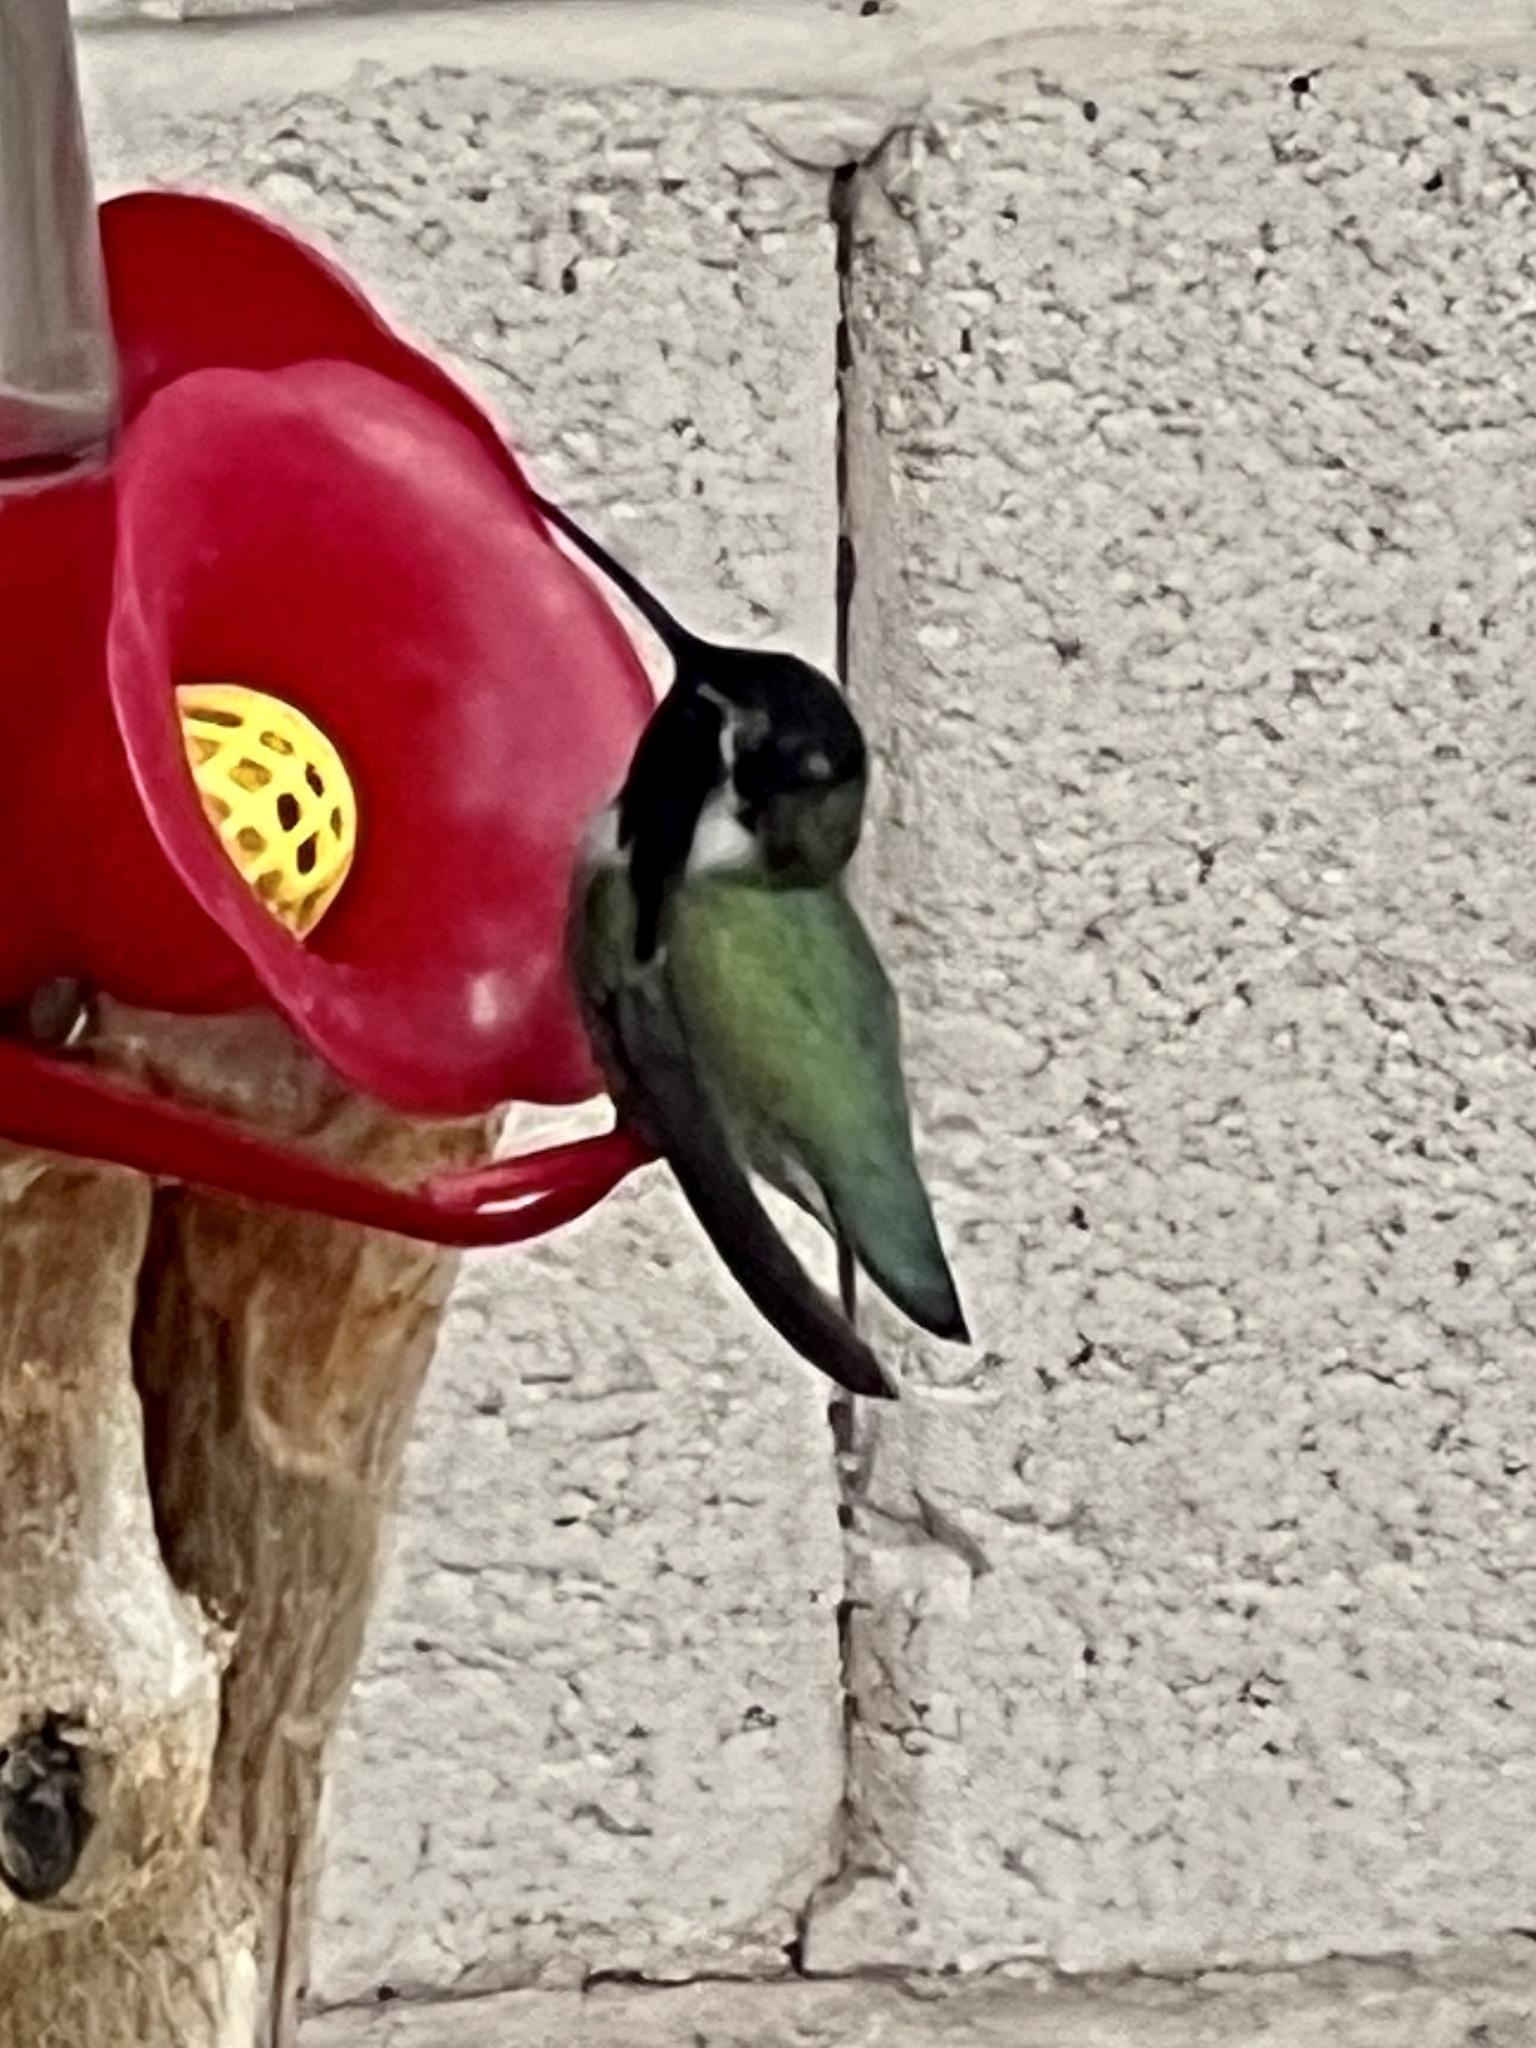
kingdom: Animalia
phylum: Chordata
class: Aves
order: Apodiformes
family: Trochilidae
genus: Calypte
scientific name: Calypte costae
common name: Costa's hummingbird
